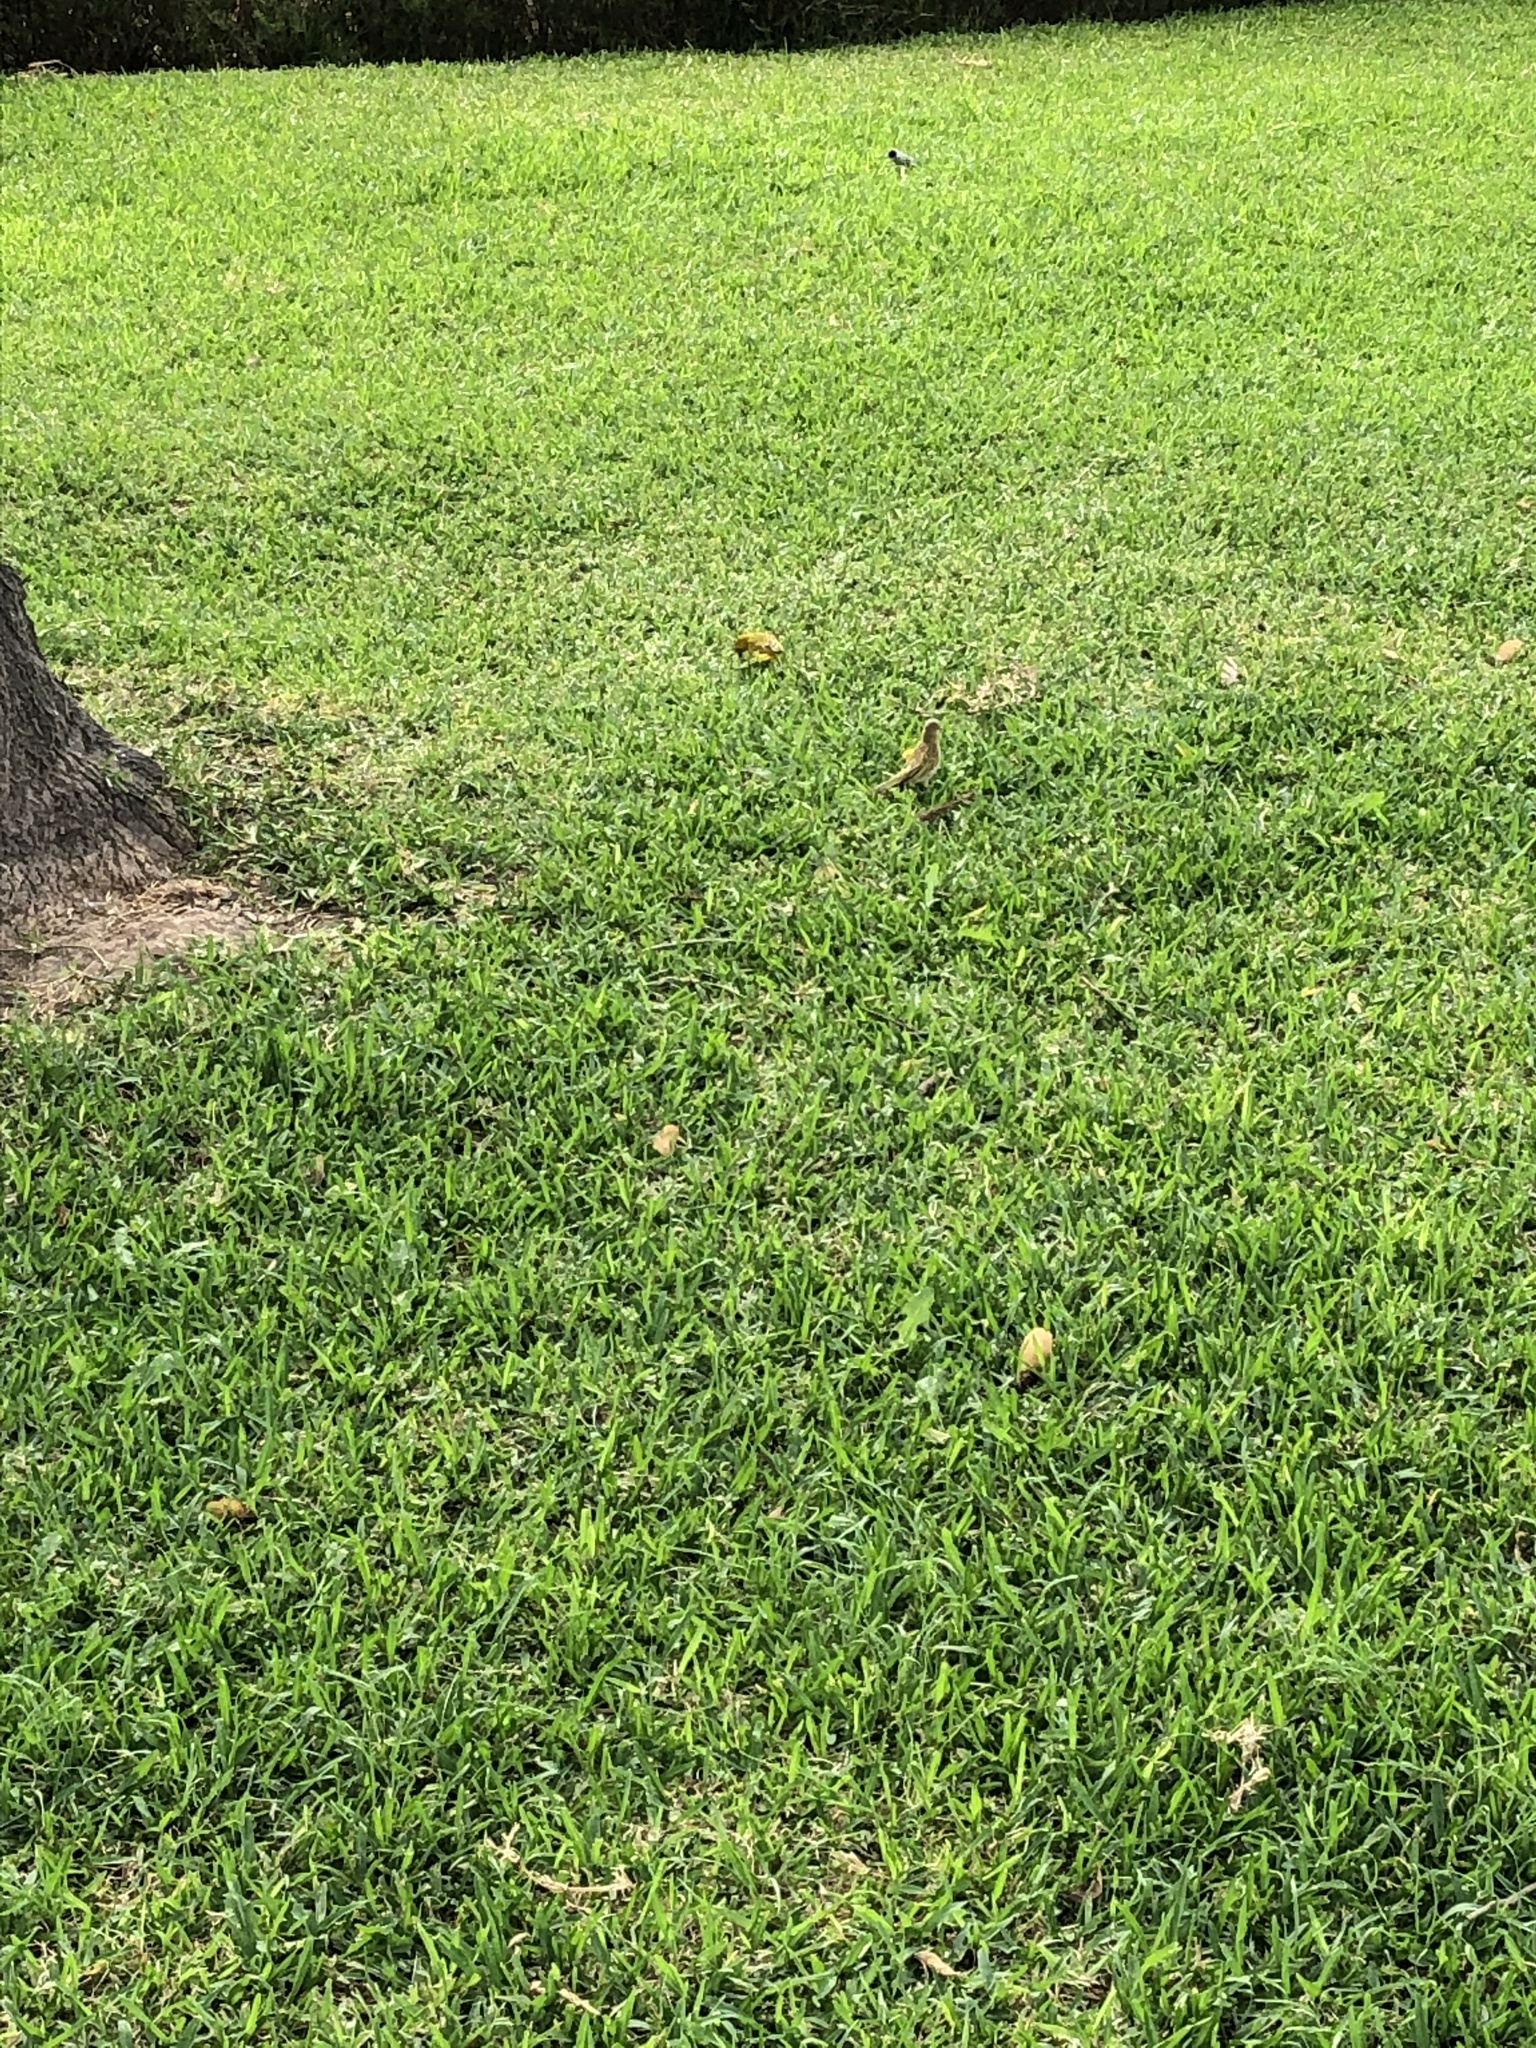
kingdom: Animalia
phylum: Chordata
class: Aves
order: Passeriformes
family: Thraupidae
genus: Sicalis
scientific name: Sicalis flaveola
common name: Saffron finch
